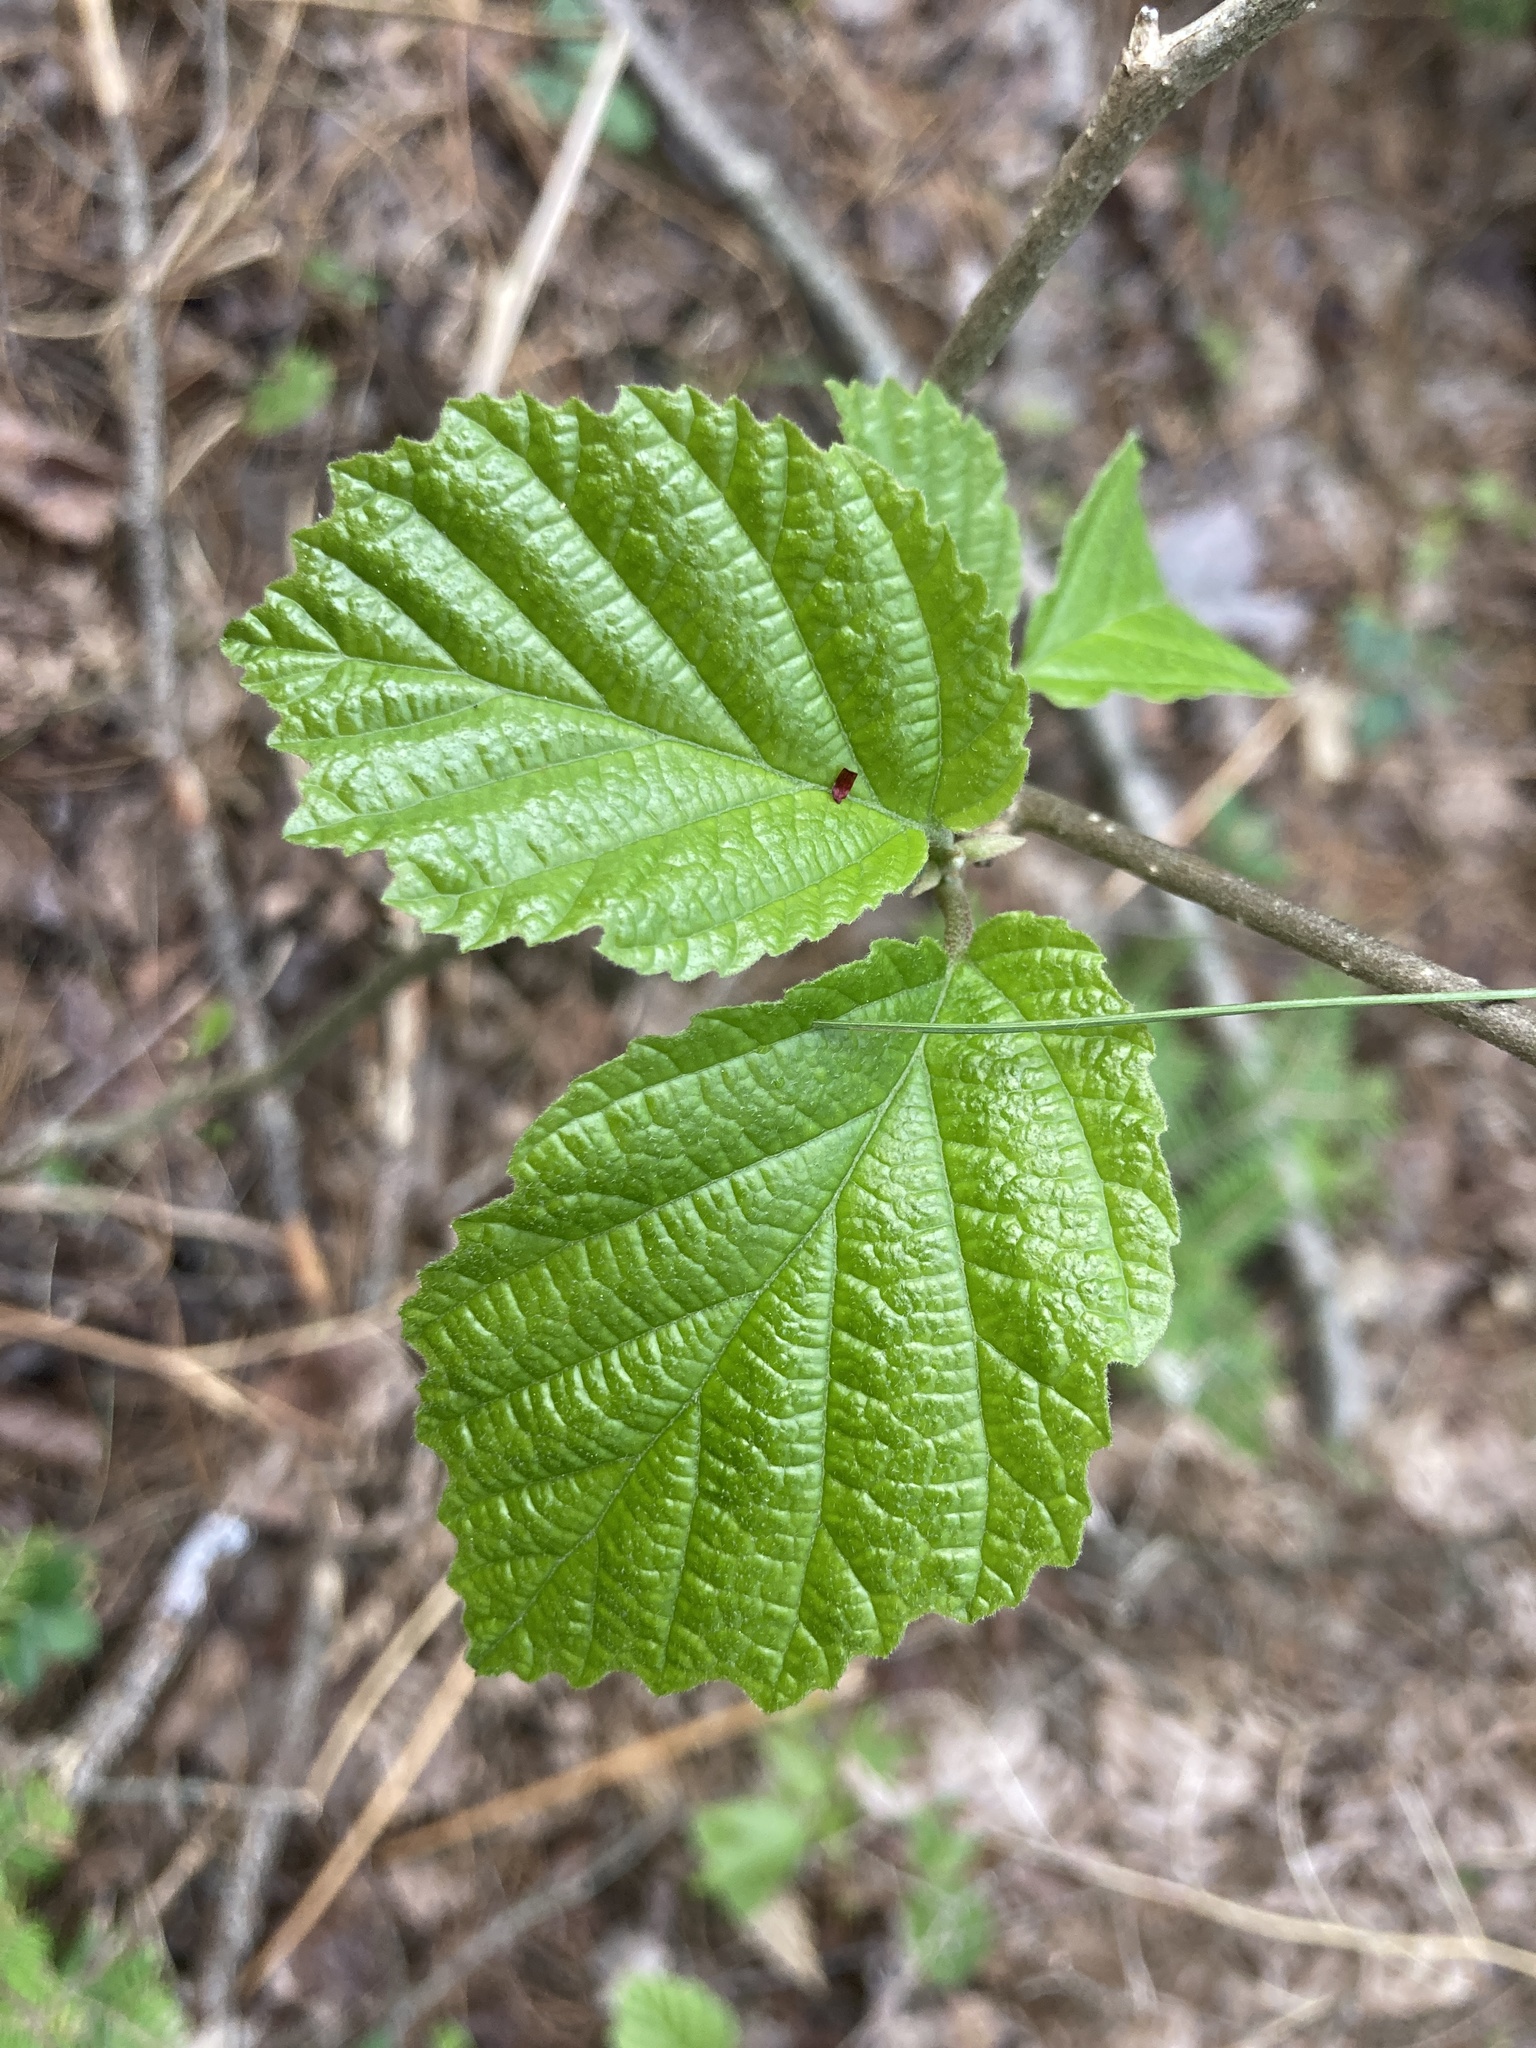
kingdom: Plantae
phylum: Tracheophyta
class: Magnoliopsida
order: Saxifragales
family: Hamamelidaceae
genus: Hamamelis
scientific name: Hamamelis virginiana
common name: Witch-hazel
